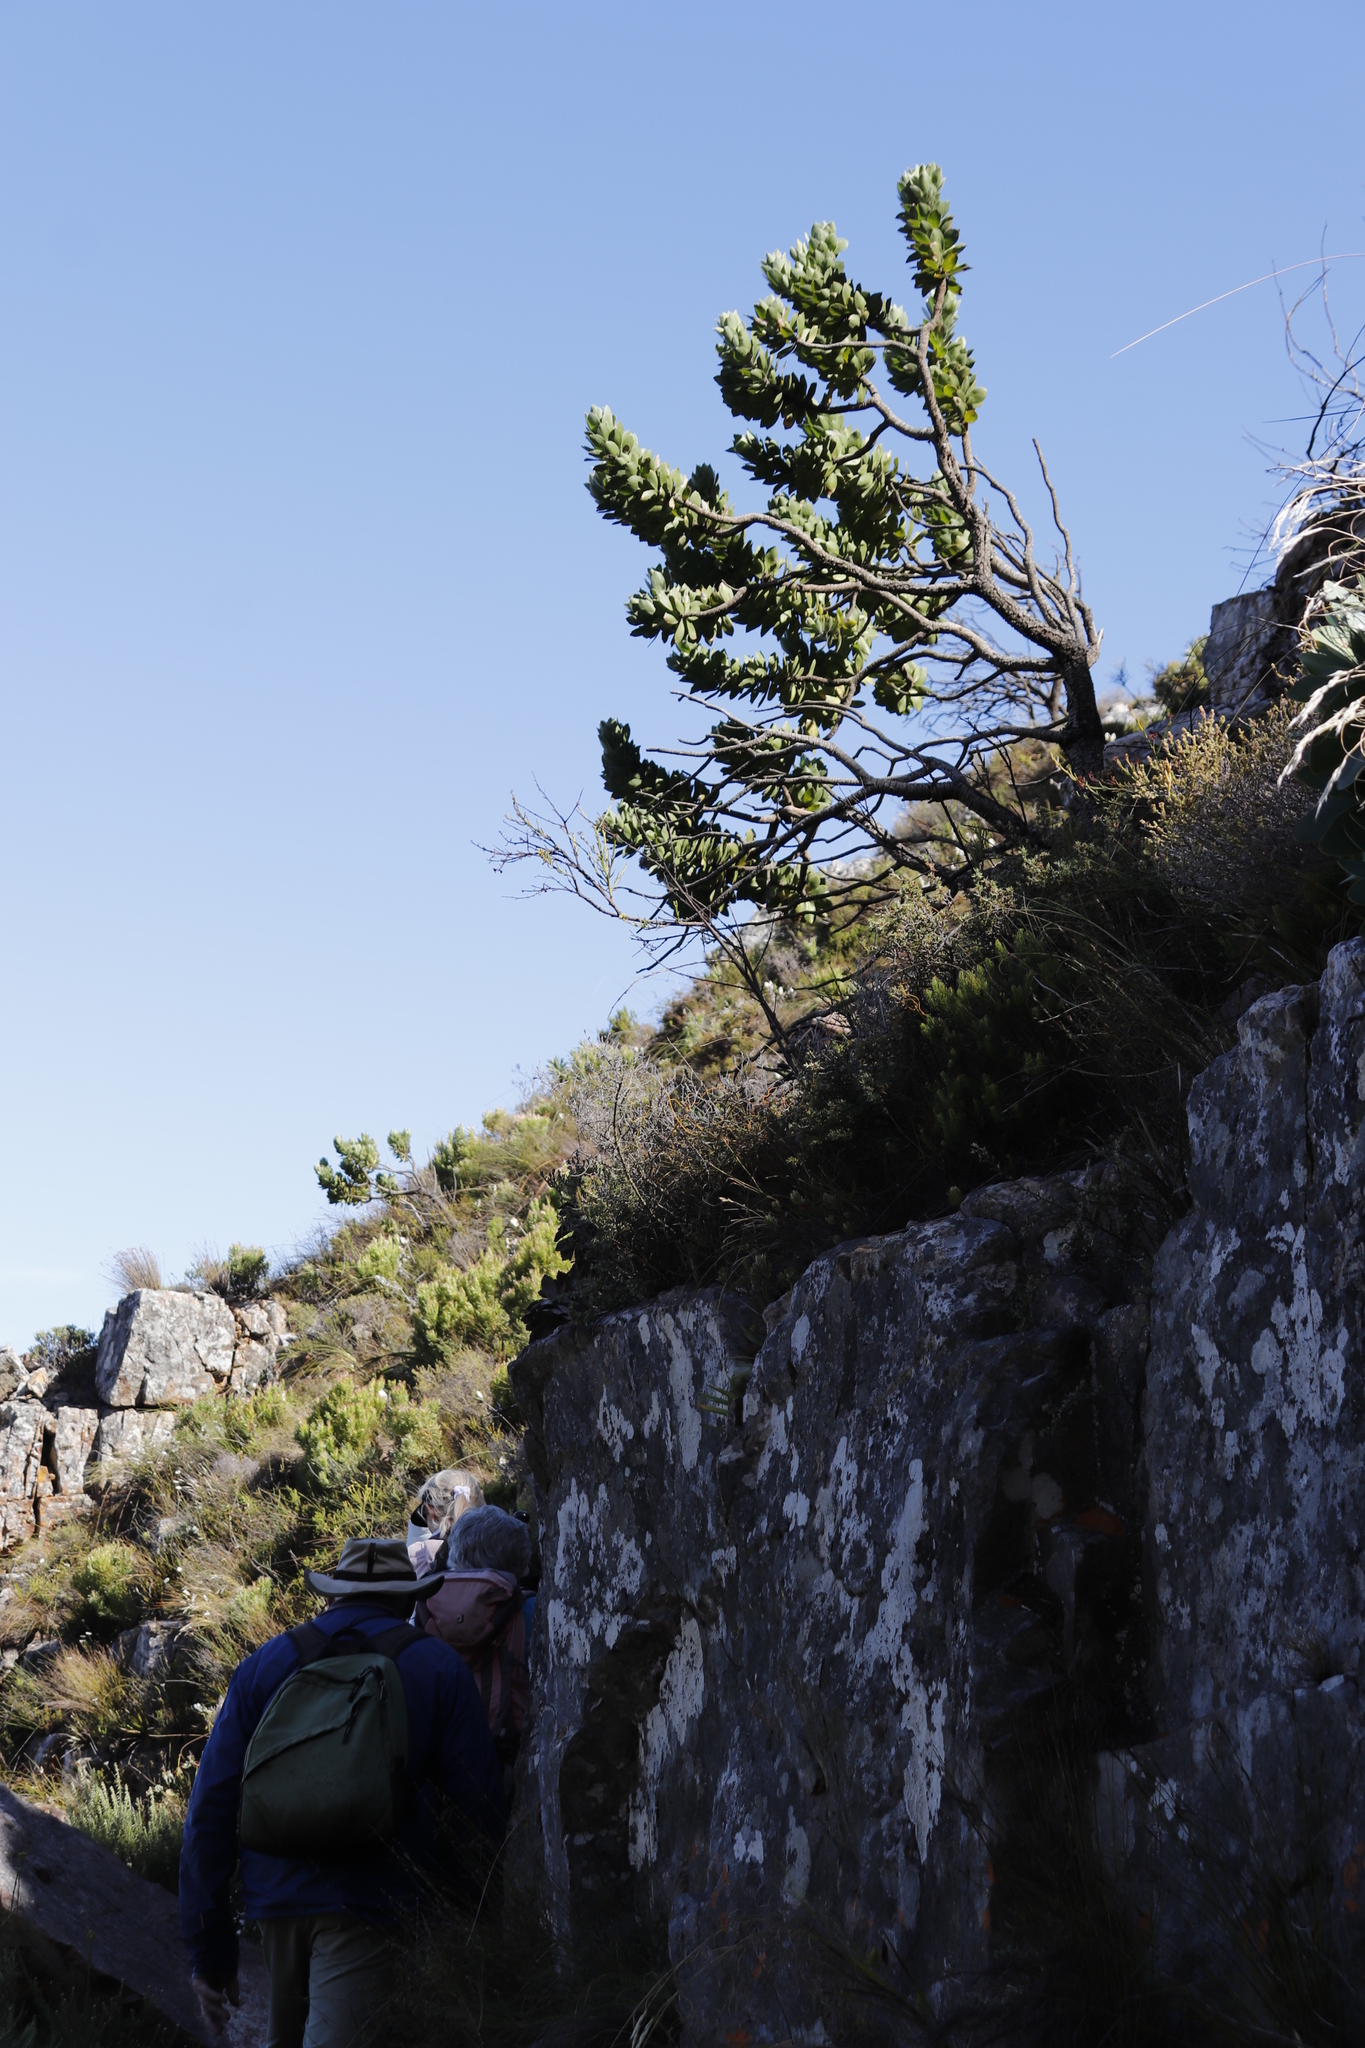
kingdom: Plantae
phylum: Tracheophyta
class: Magnoliopsida
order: Proteales
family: Proteaceae
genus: Leucospermum
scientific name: Leucospermum conocarpodendron
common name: Tree pincushion
